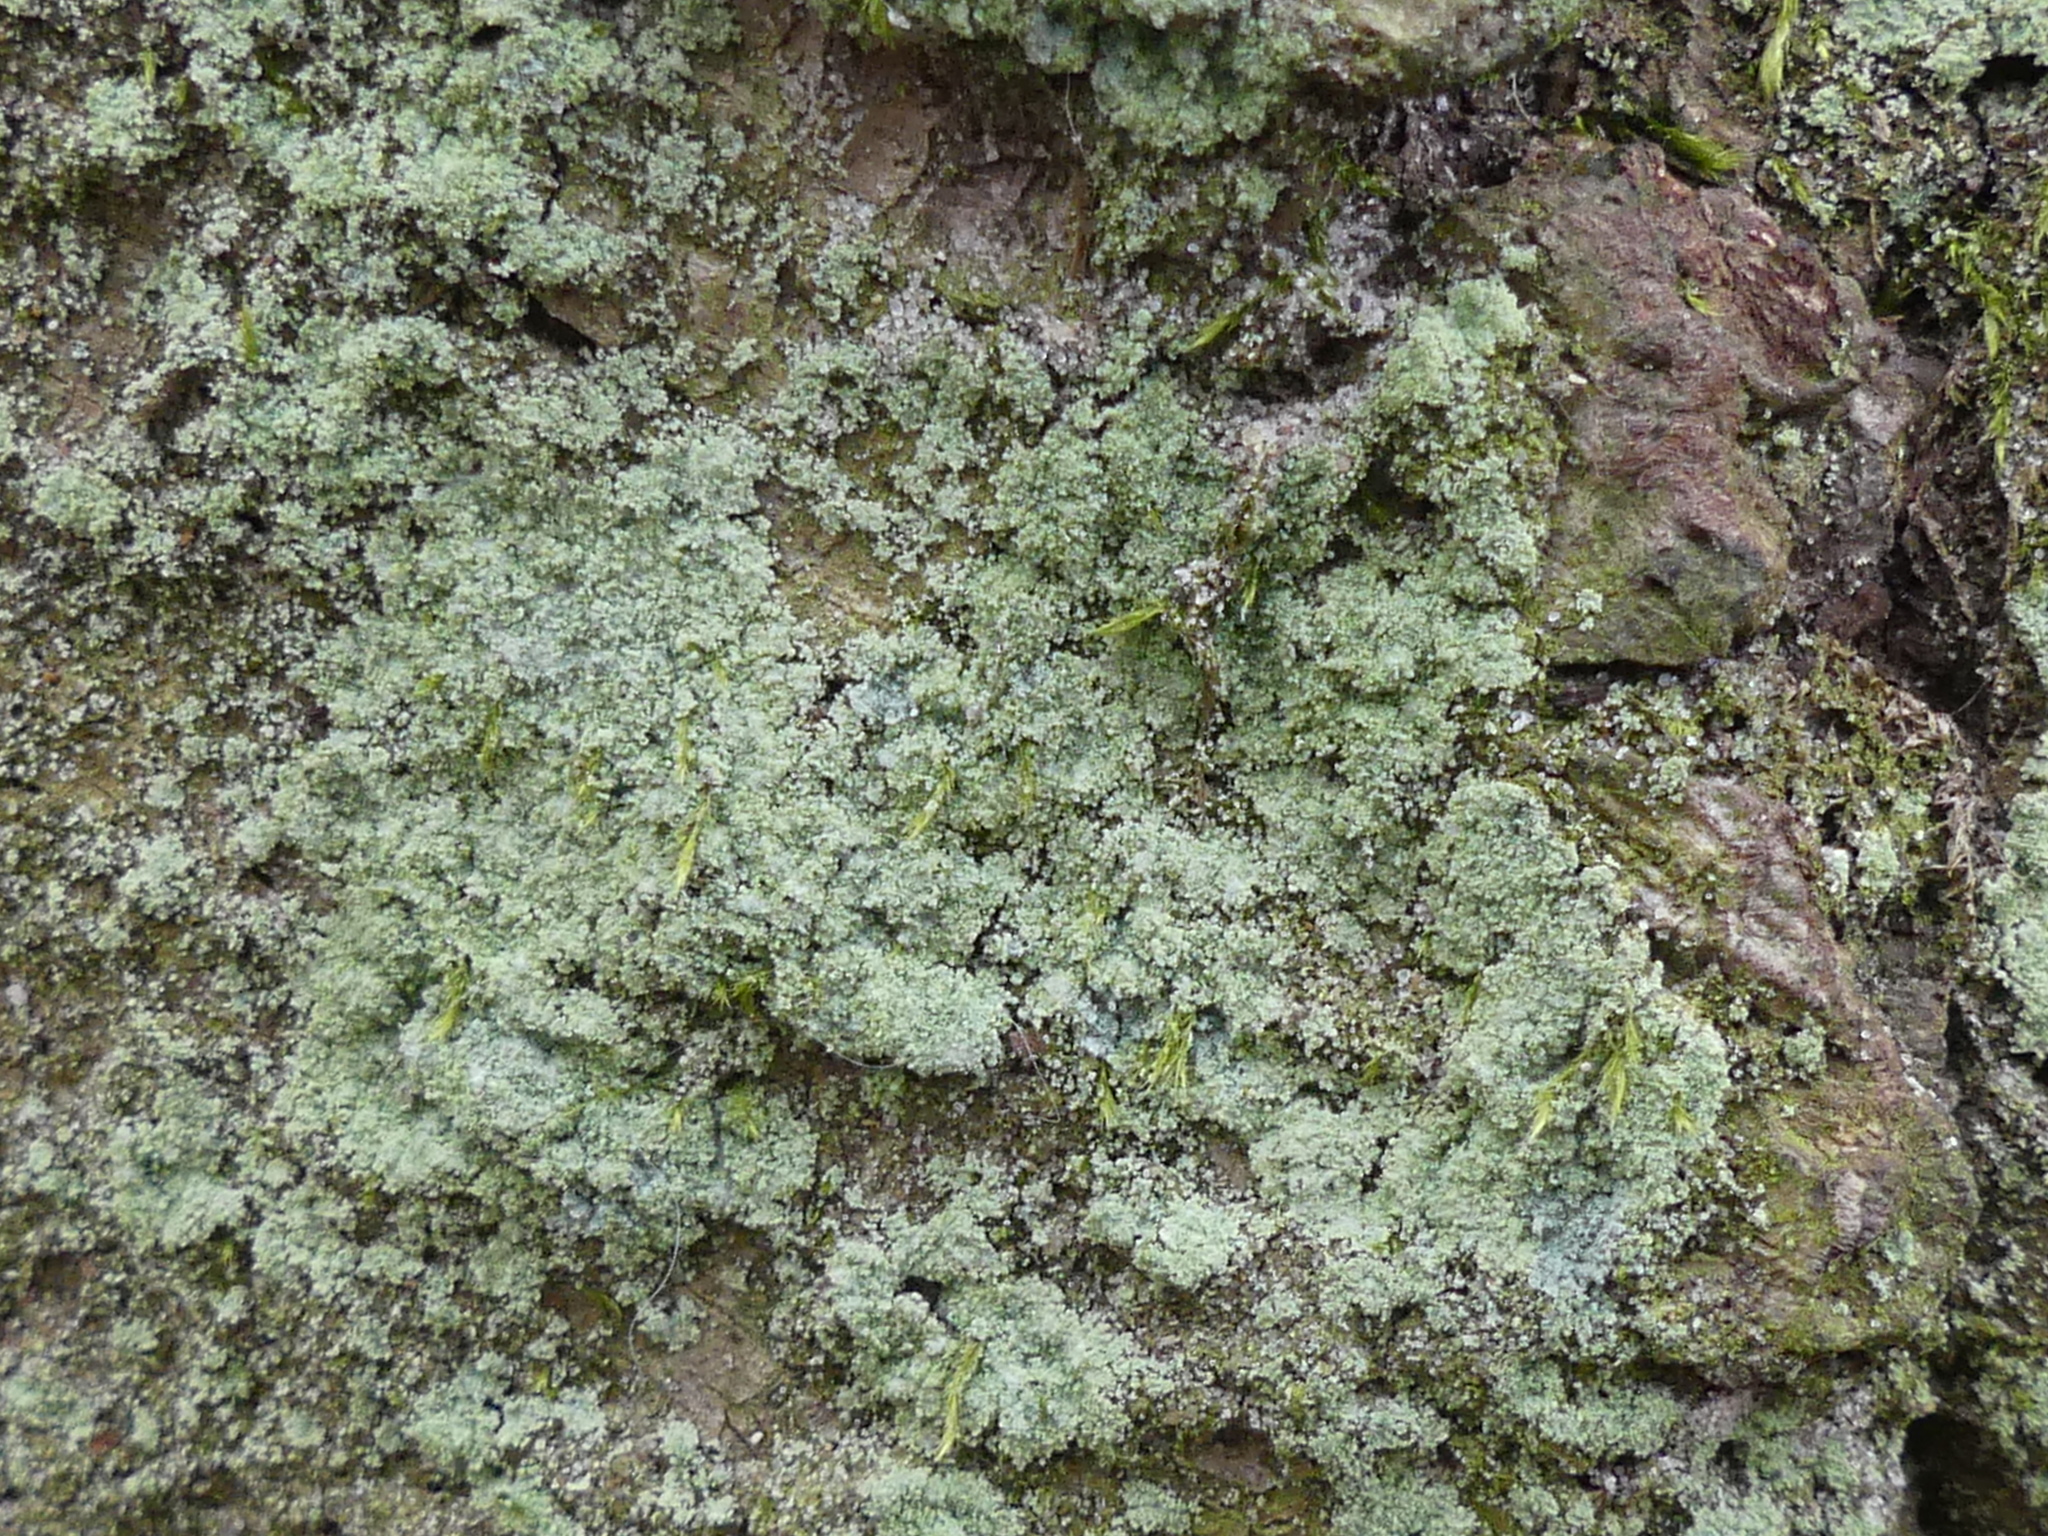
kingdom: Fungi
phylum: Ascomycota
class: Lecanoromycetes
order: Lecanorales
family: Stereocaulaceae
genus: Lepraria
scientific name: Lepraria
